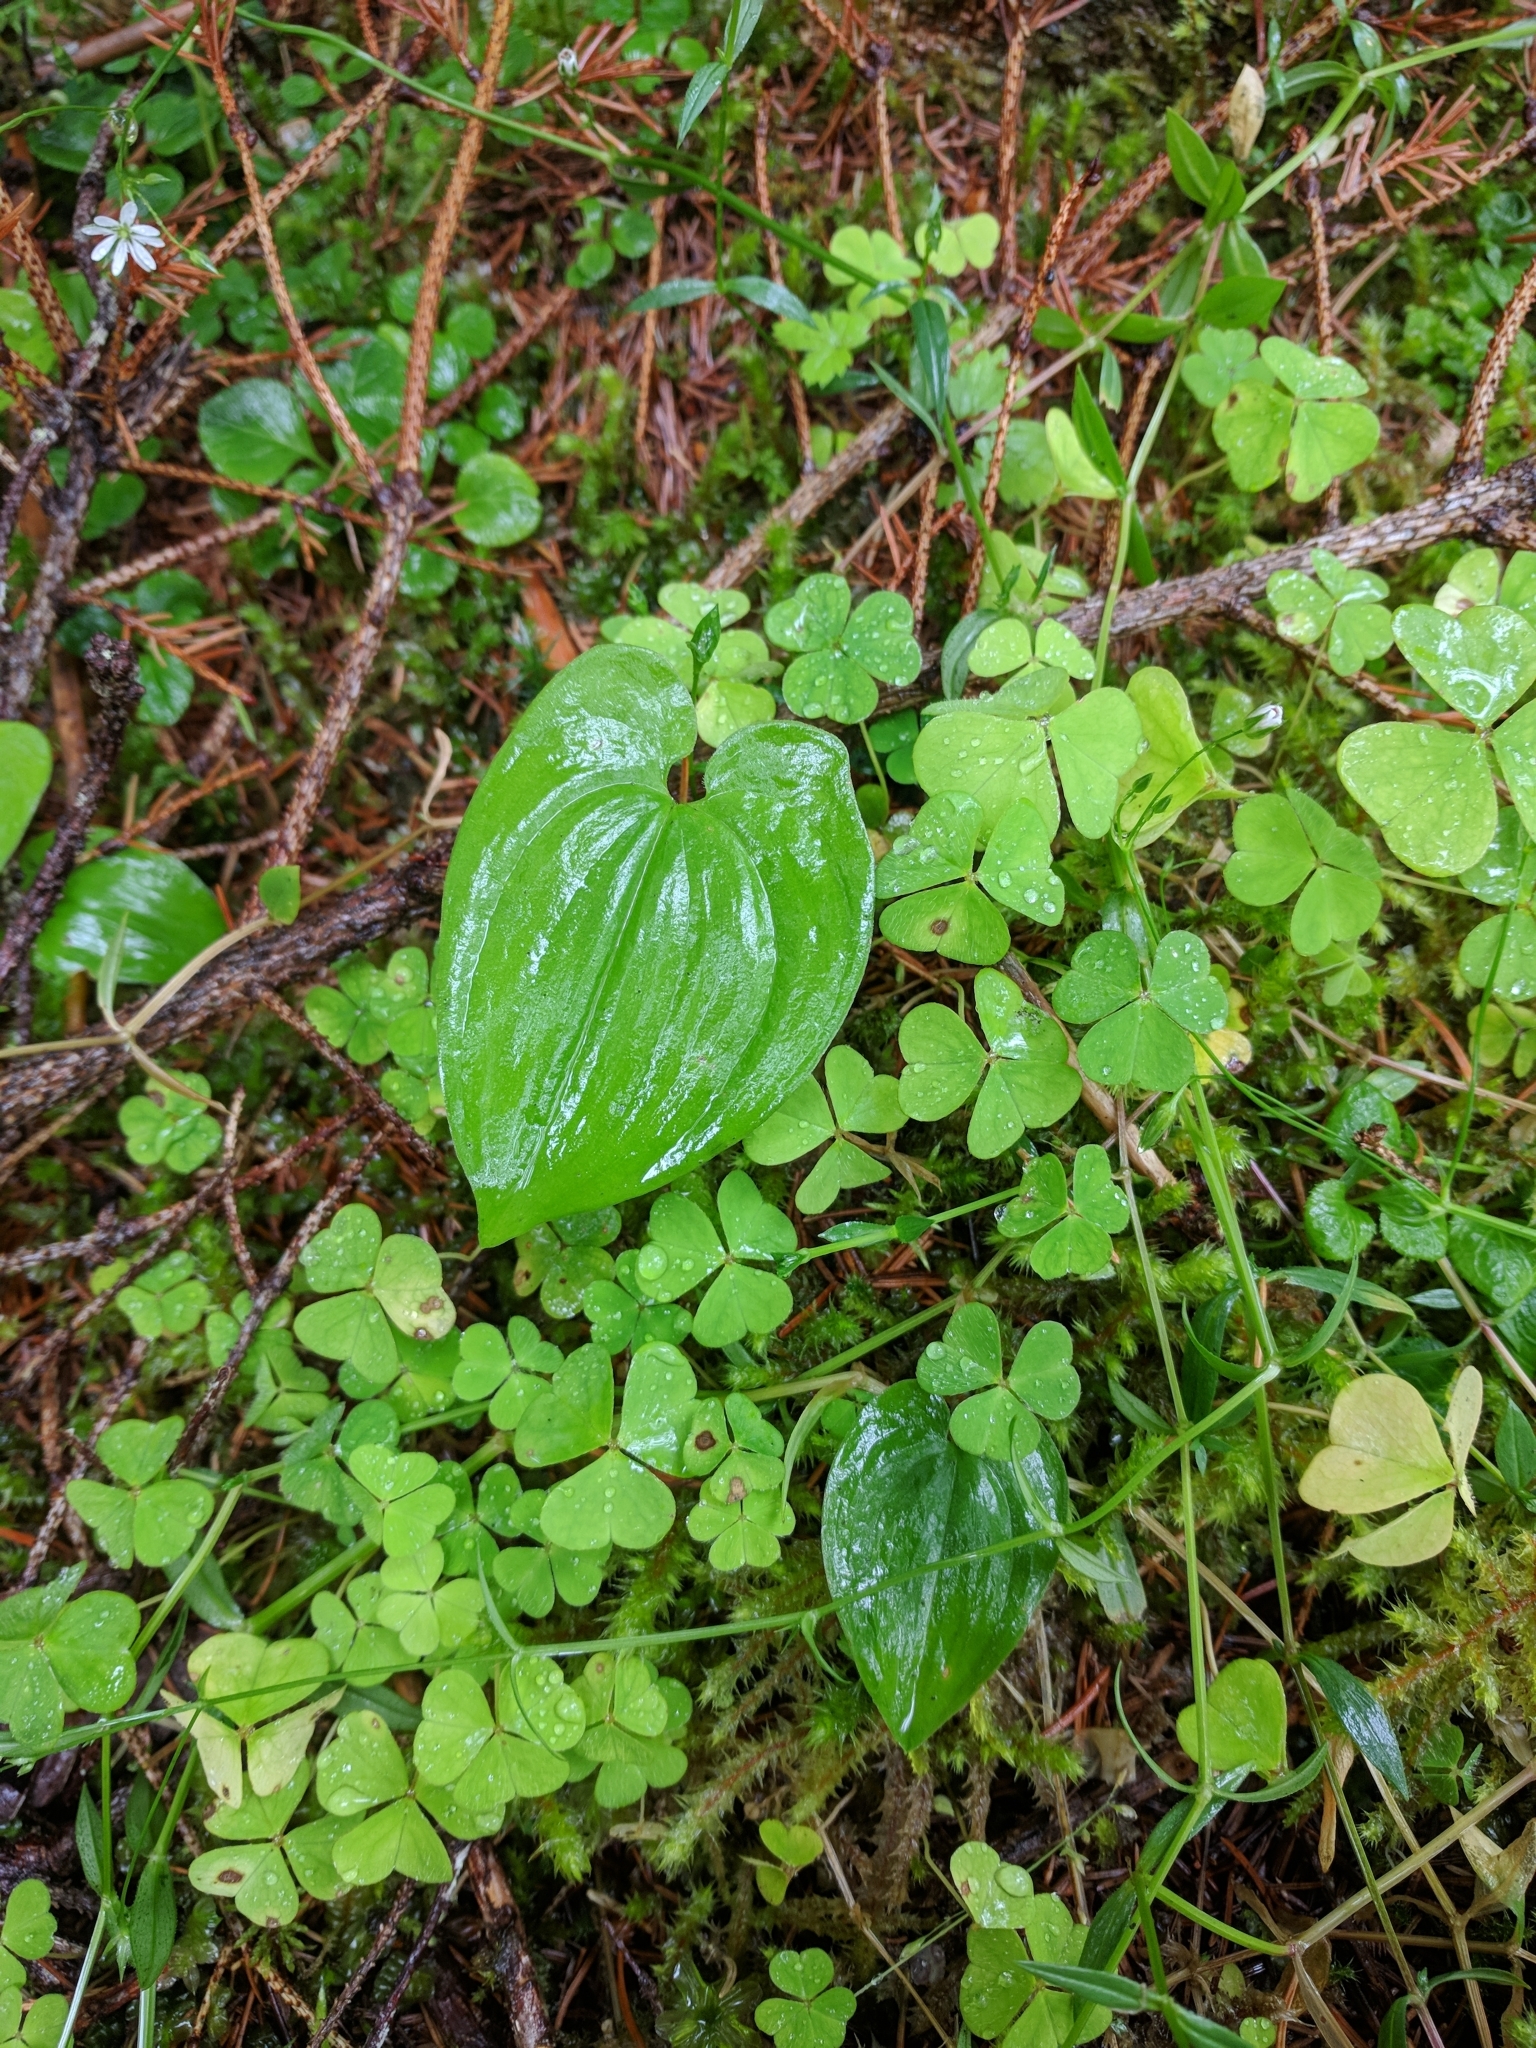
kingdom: Plantae
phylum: Tracheophyta
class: Liliopsida
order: Asparagales
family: Asparagaceae
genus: Maianthemum
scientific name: Maianthemum bifolium
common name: May lily
